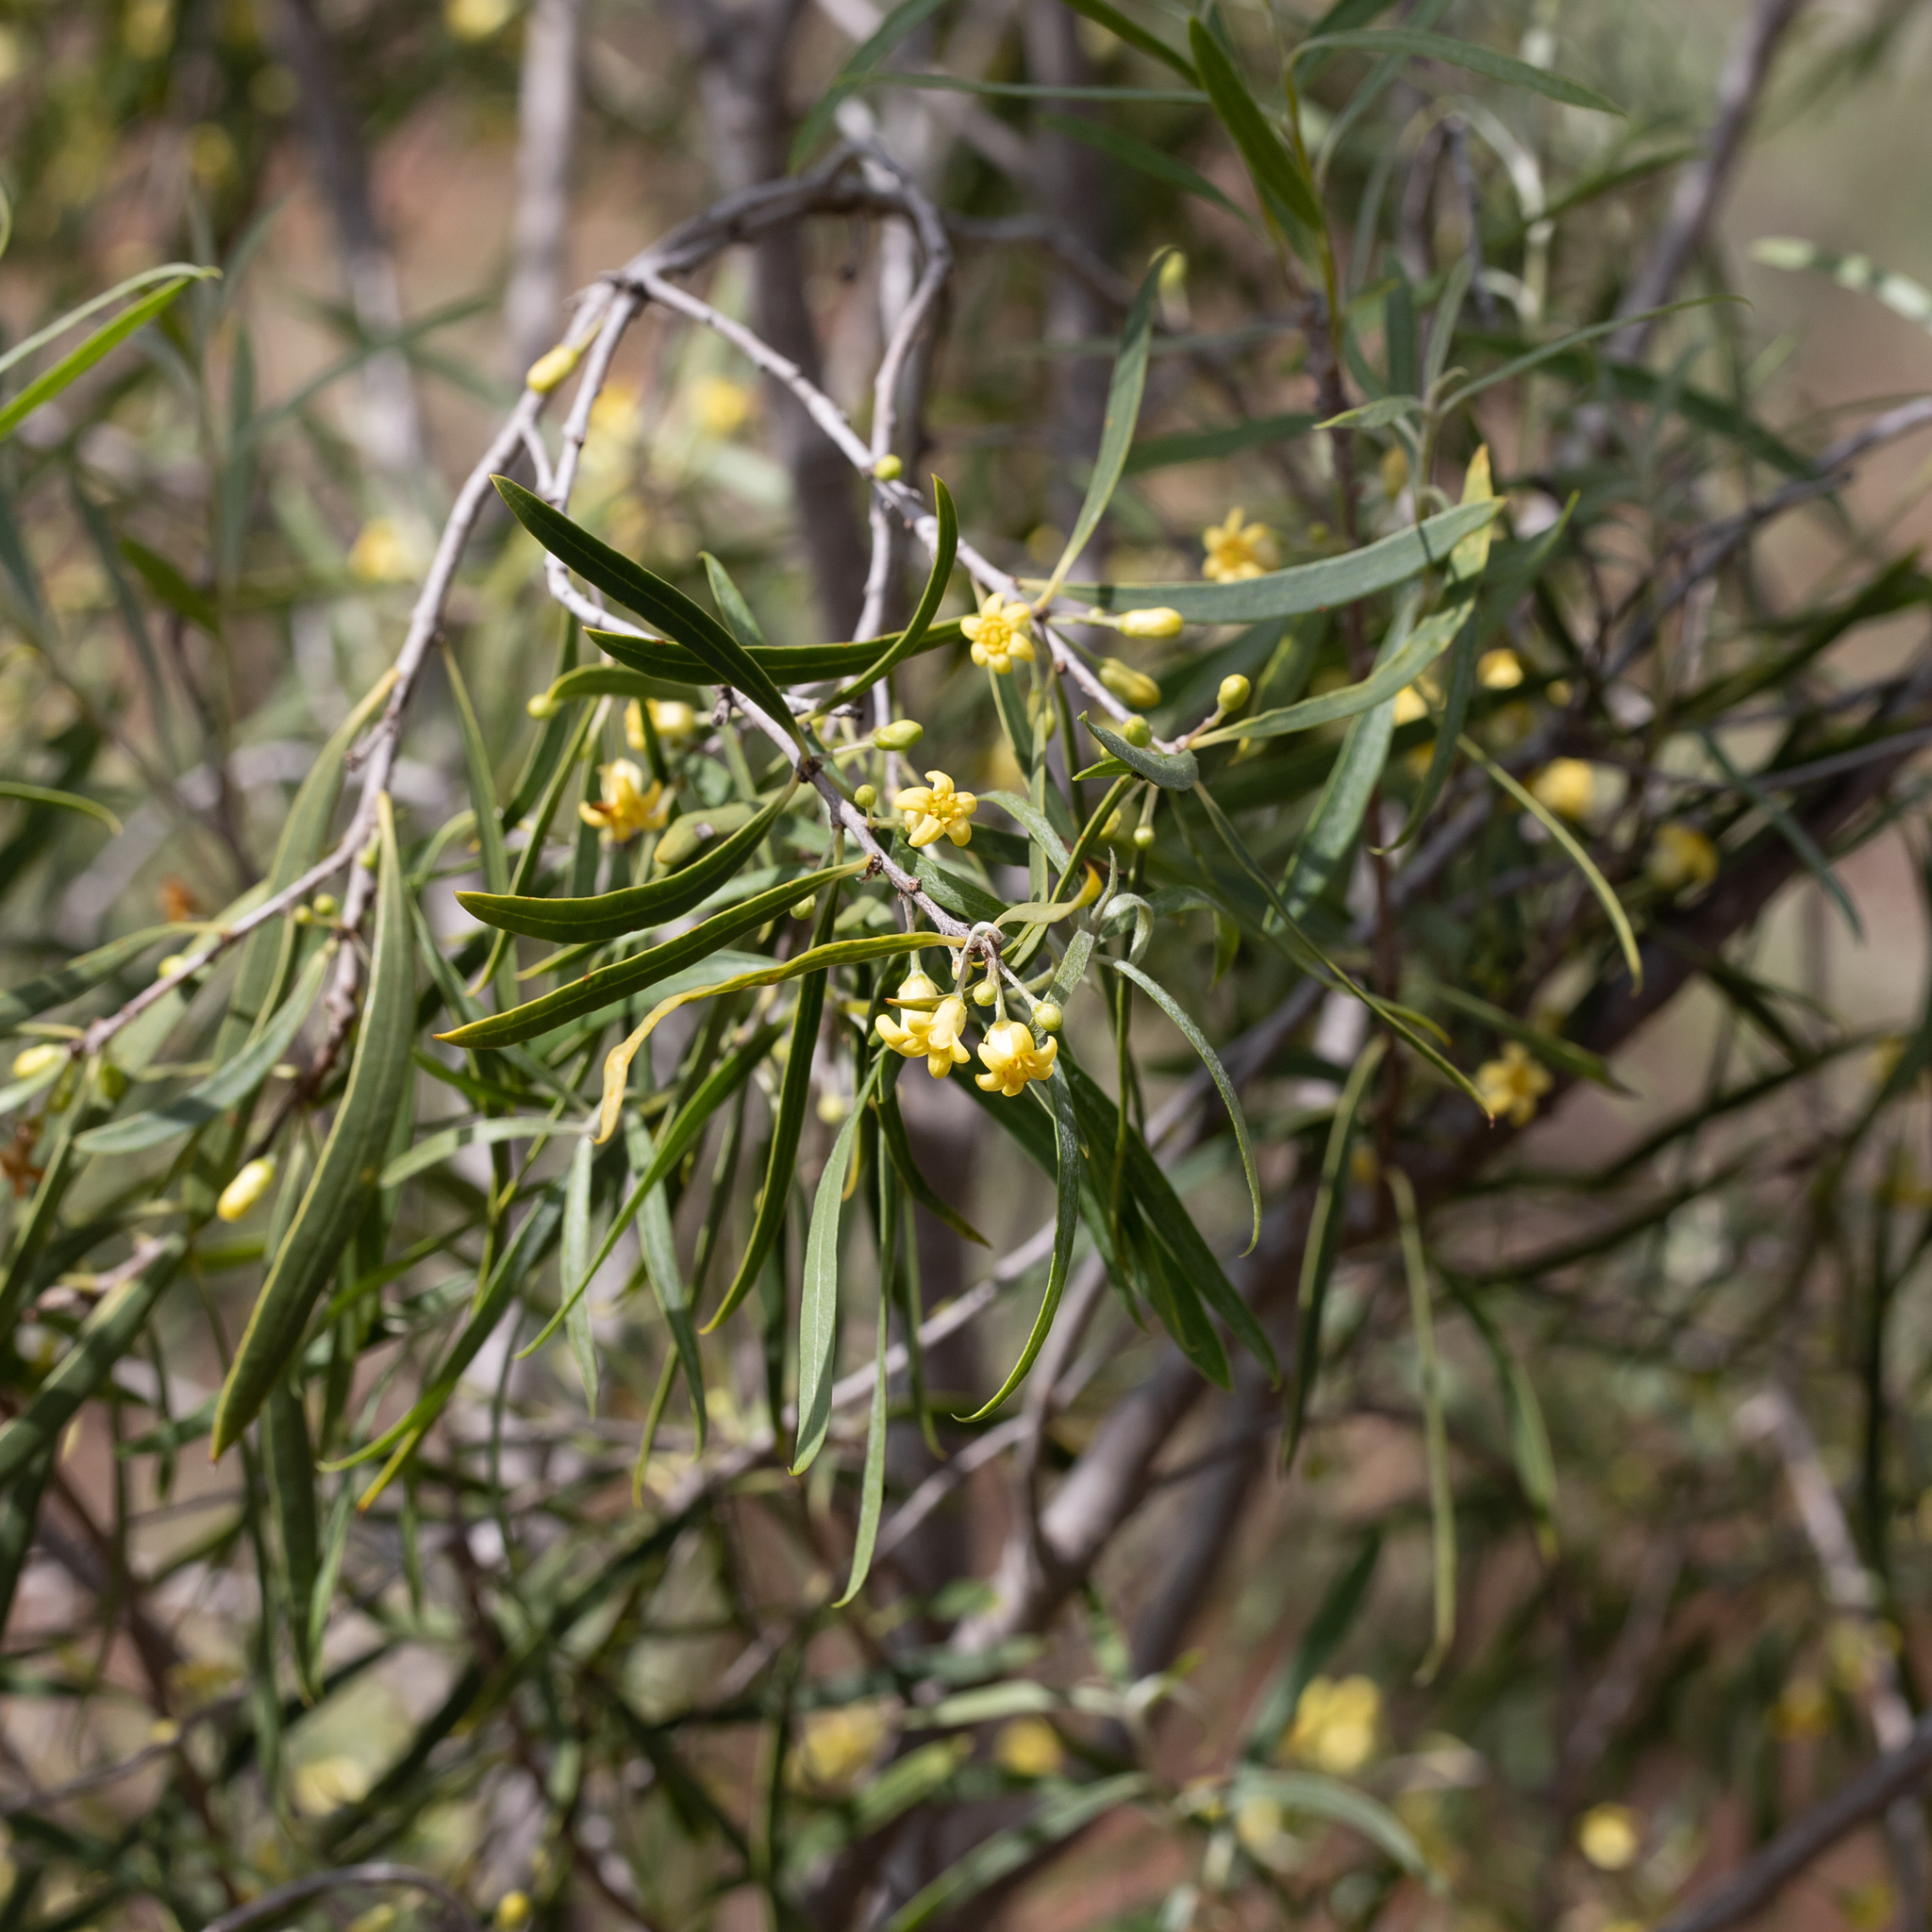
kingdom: Plantae
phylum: Tracheophyta
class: Magnoliopsida
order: Apiales
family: Pittosporaceae
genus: Pittosporum
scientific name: Pittosporum angustifolium
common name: Weeping pittosporum
